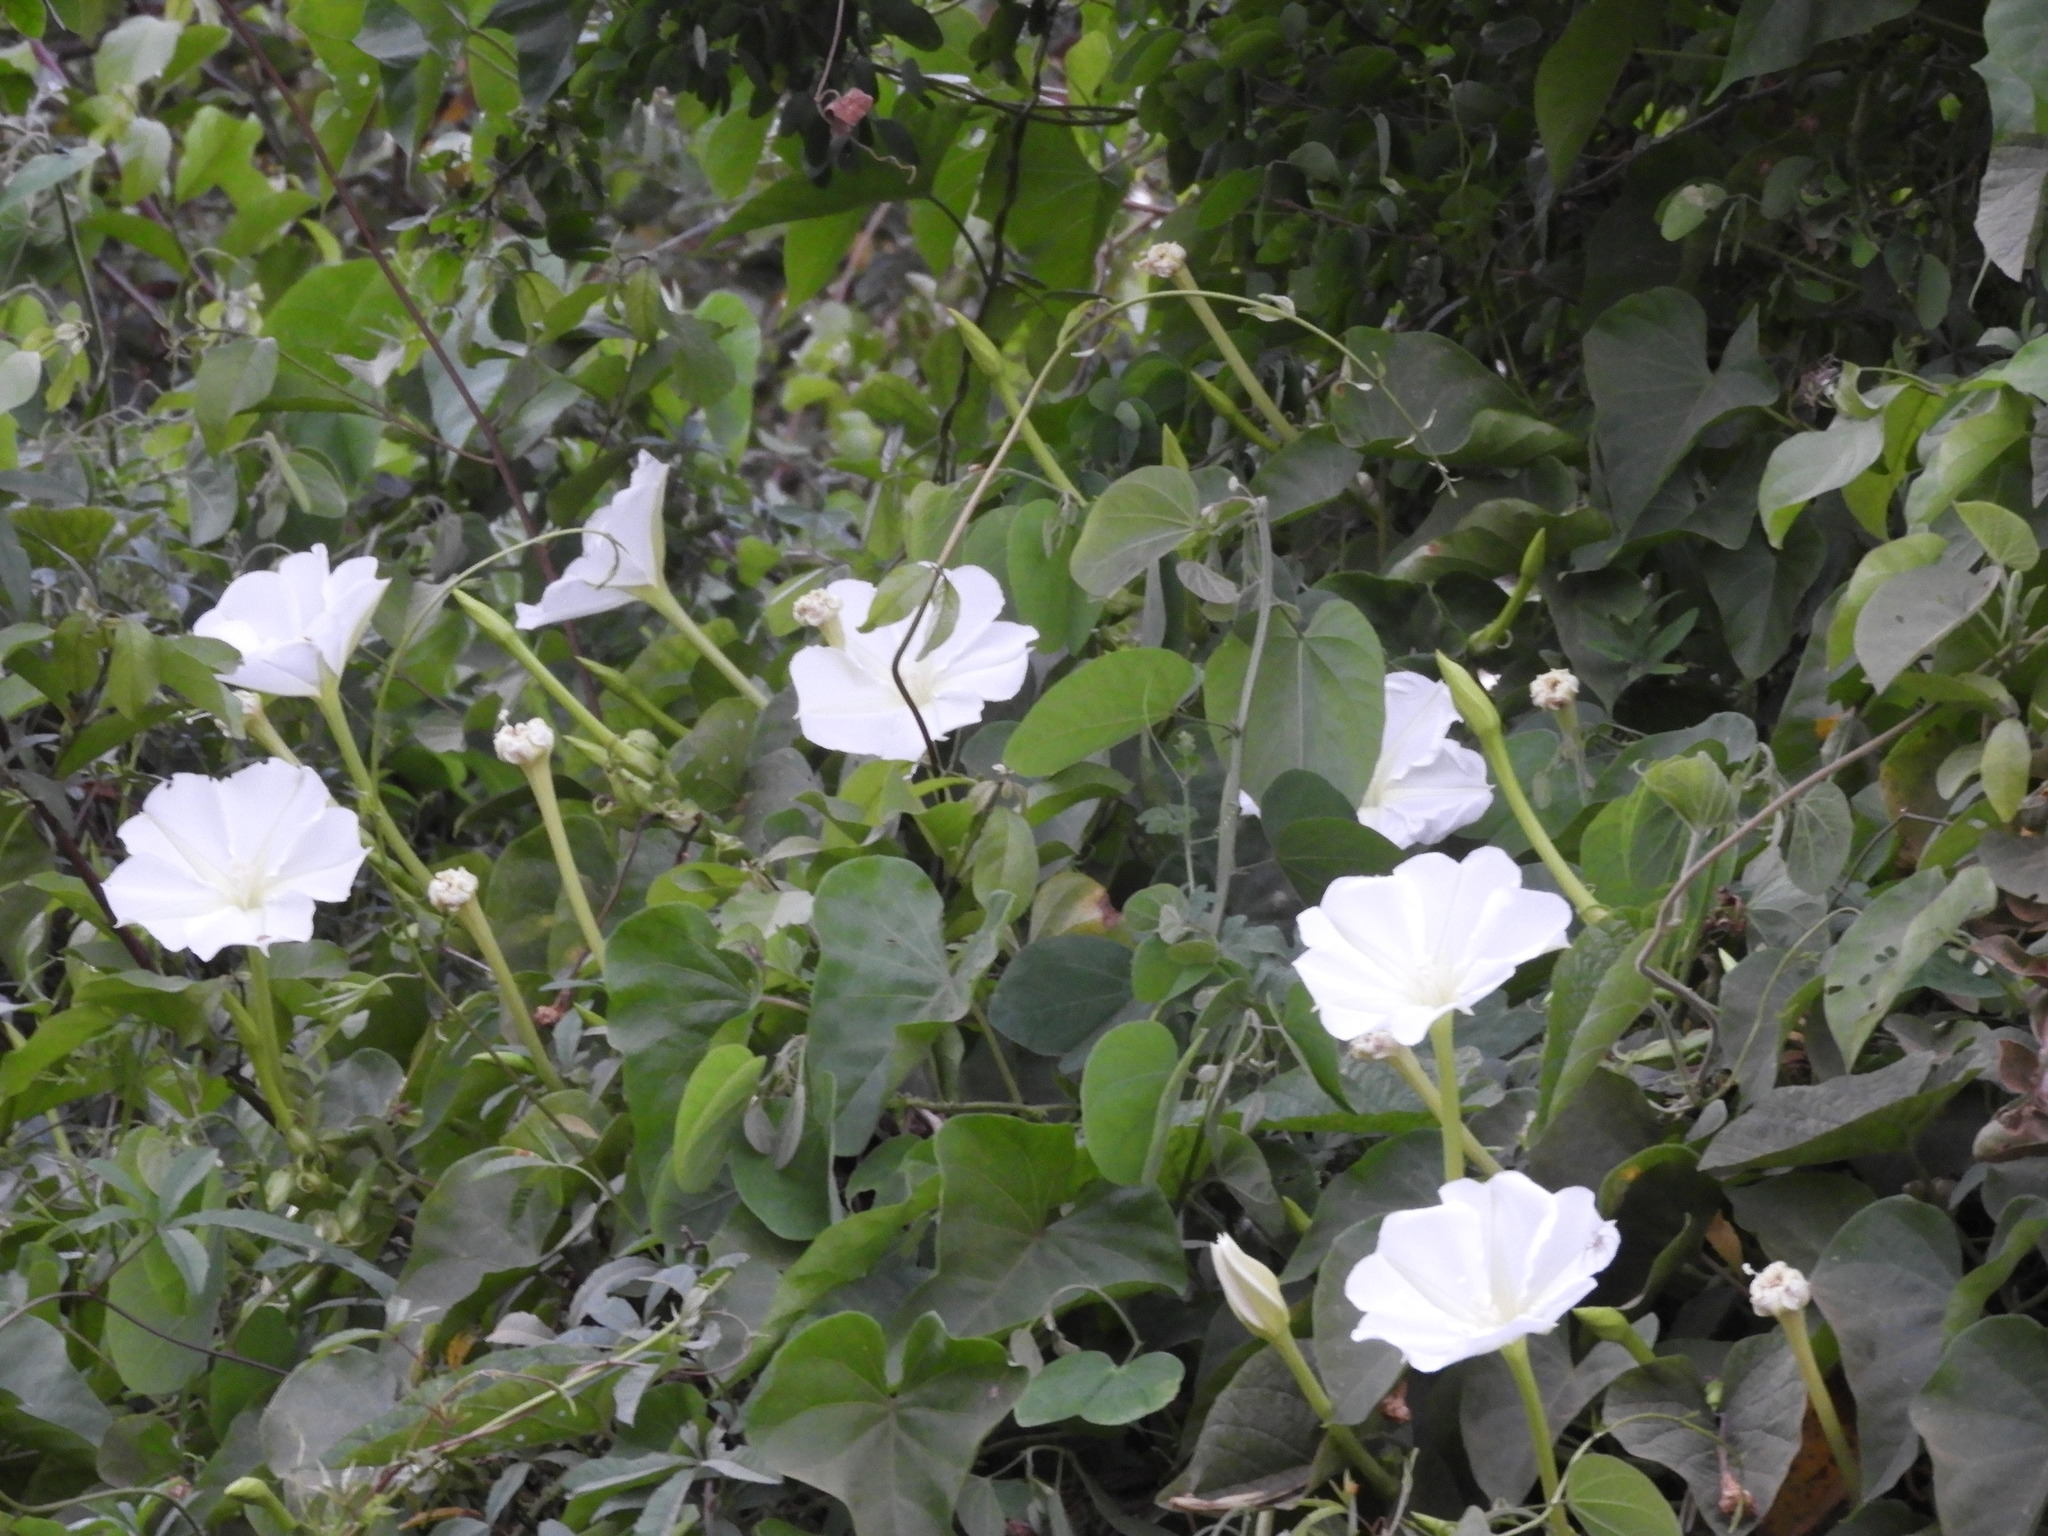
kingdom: Plantae
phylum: Tracheophyta
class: Magnoliopsida
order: Solanales
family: Convolvulaceae
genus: Ipomoea
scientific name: Ipomoea alba
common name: Moonflower
